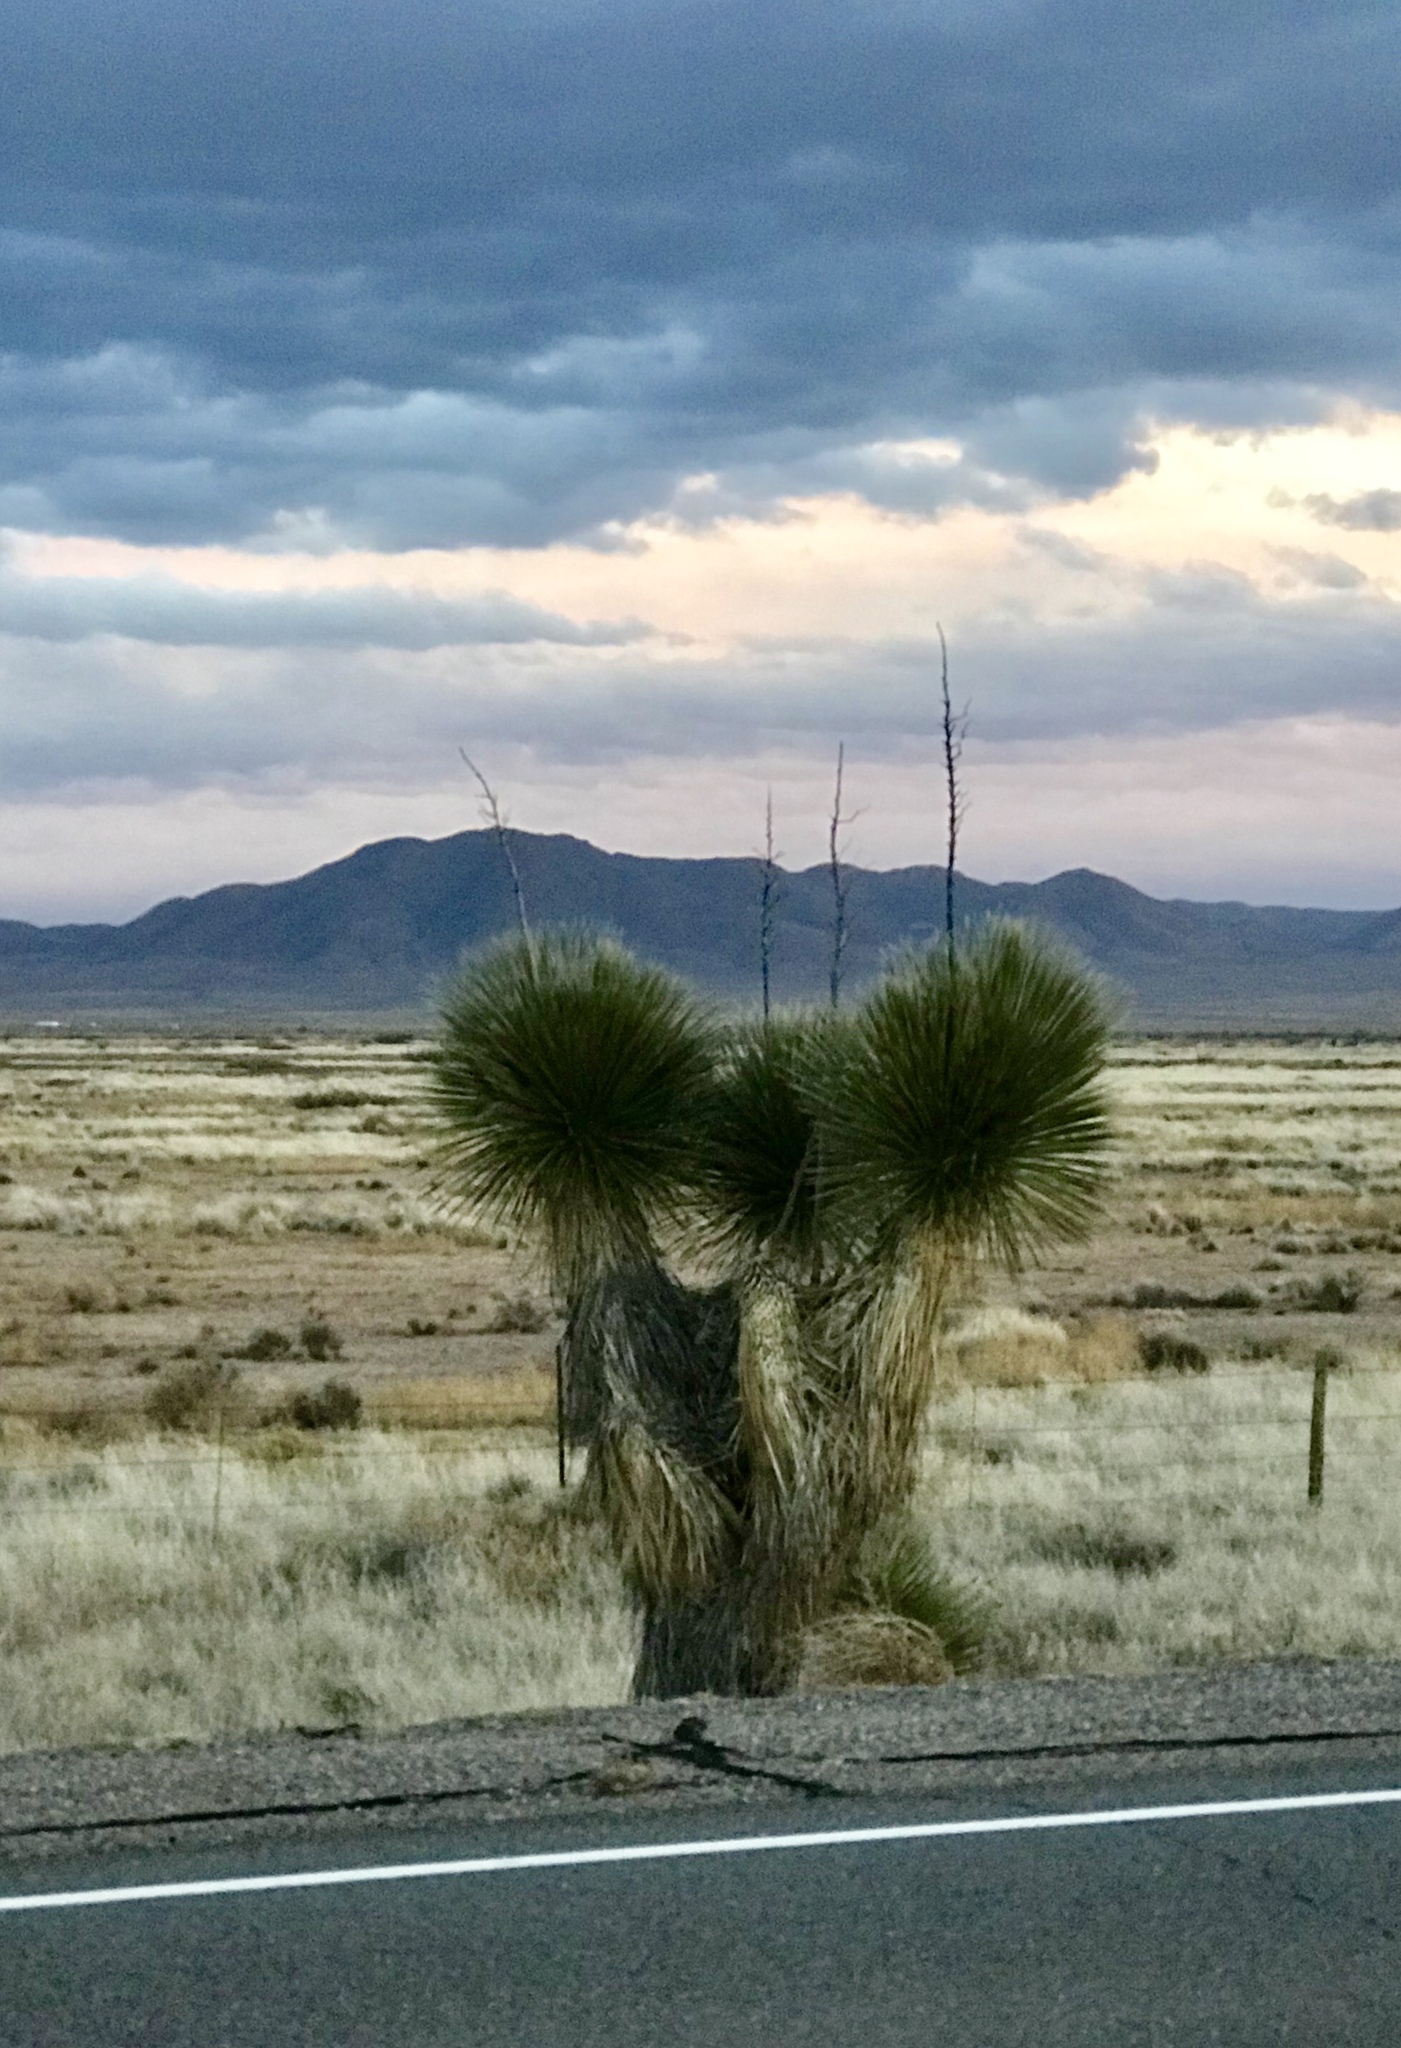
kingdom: Plantae
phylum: Tracheophyta
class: Liliopsida
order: Asparagales
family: Asparagaceae
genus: Yucca
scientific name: Yucca elata
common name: Palmella
